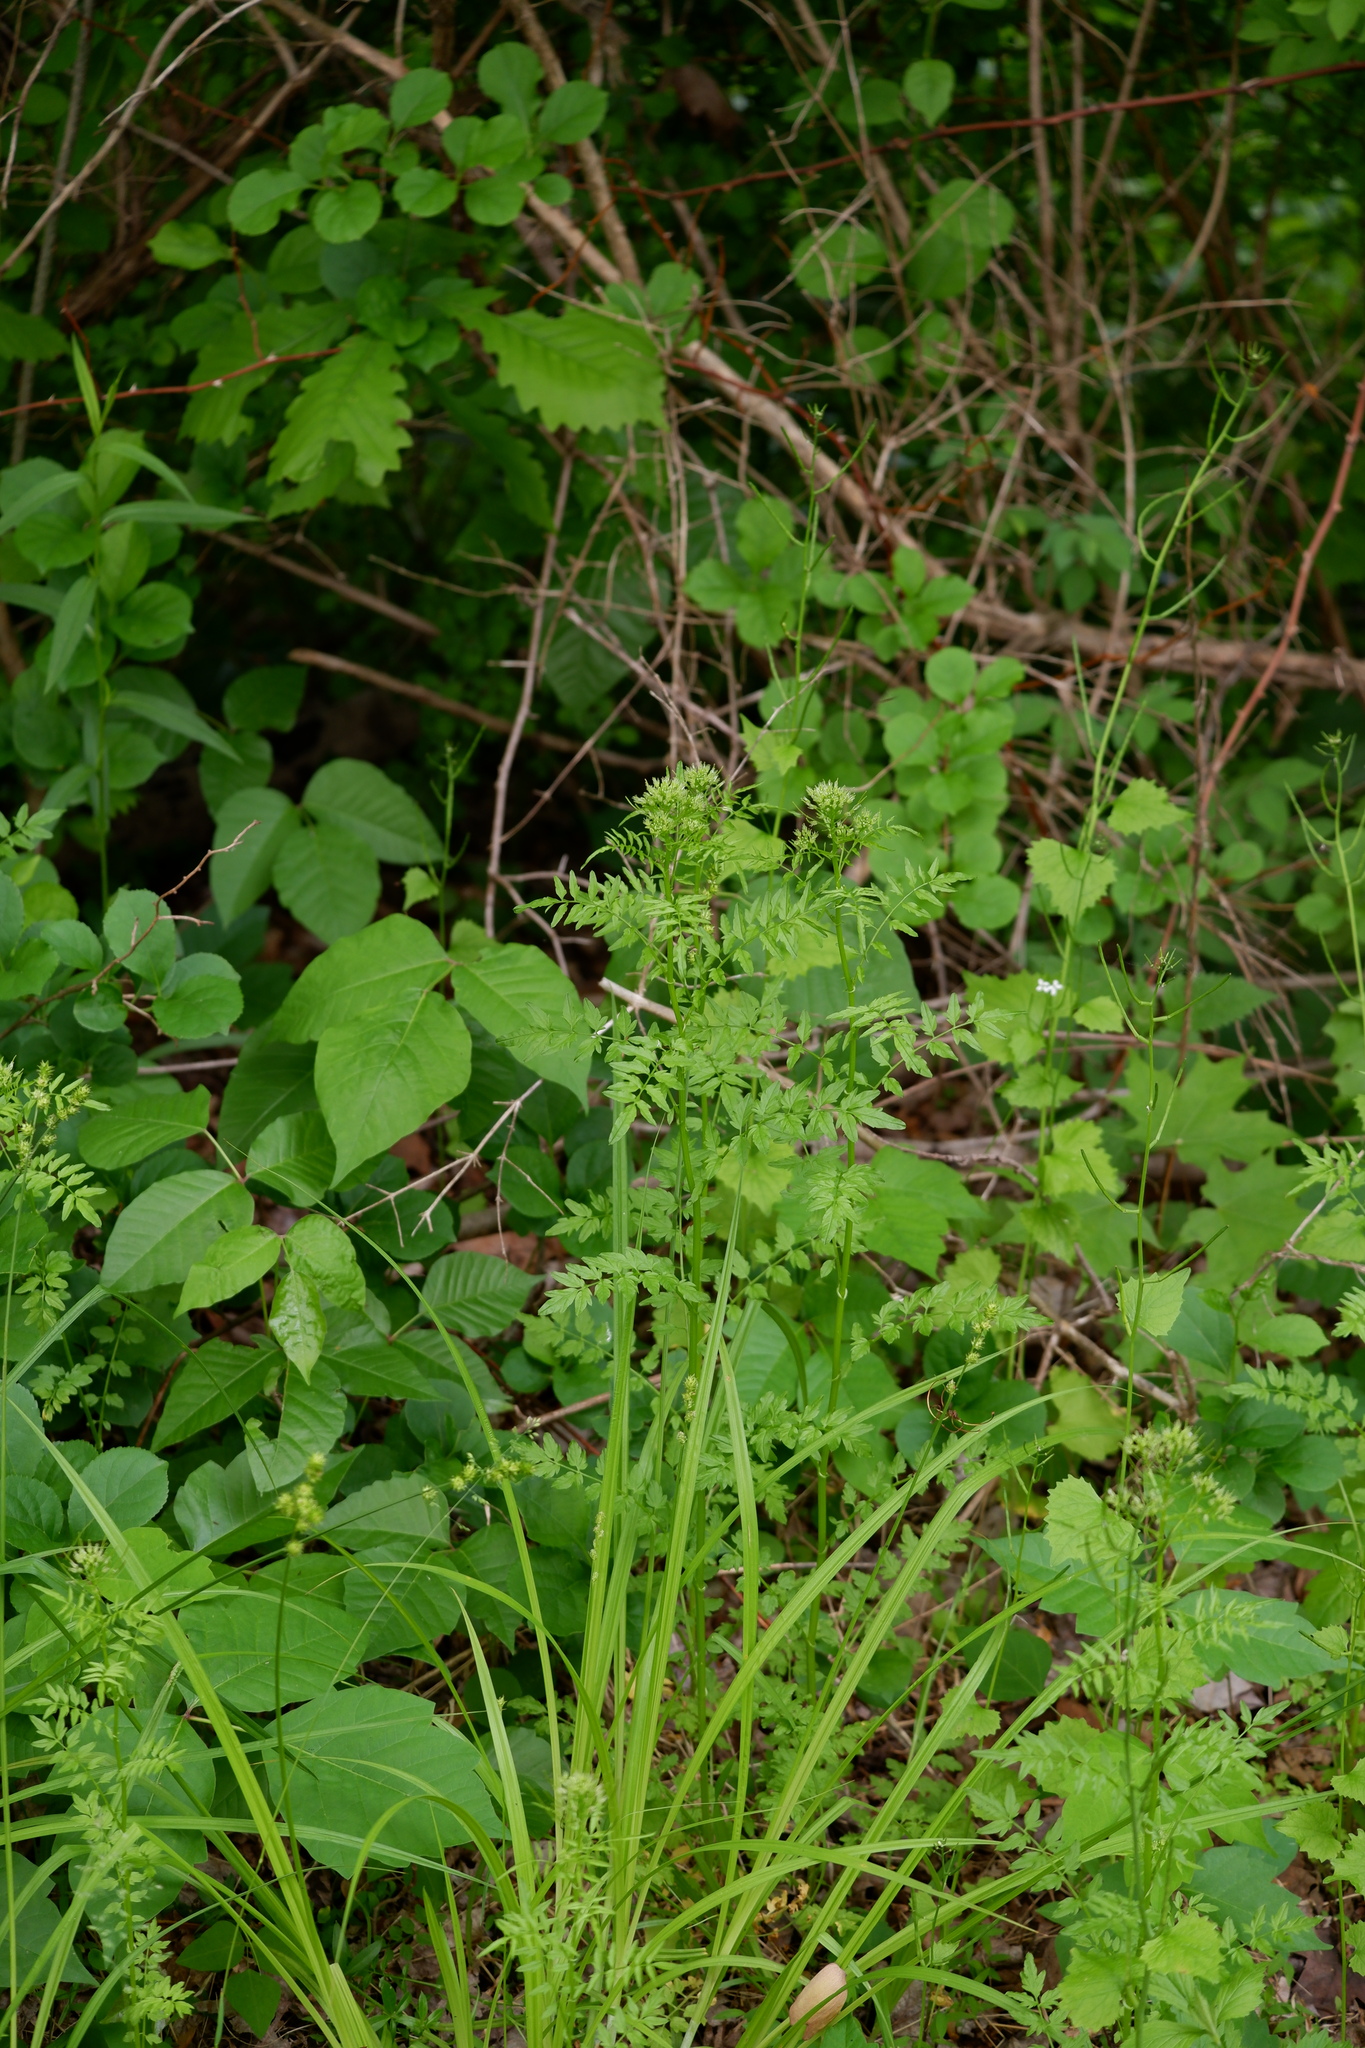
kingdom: Plantae
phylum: Tracheophyta
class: Magnoliopsida
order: Brassicales
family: Brassicaceae
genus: Cardamine
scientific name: Cardamine impatiens
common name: Narrow-leaved bitter-cress
